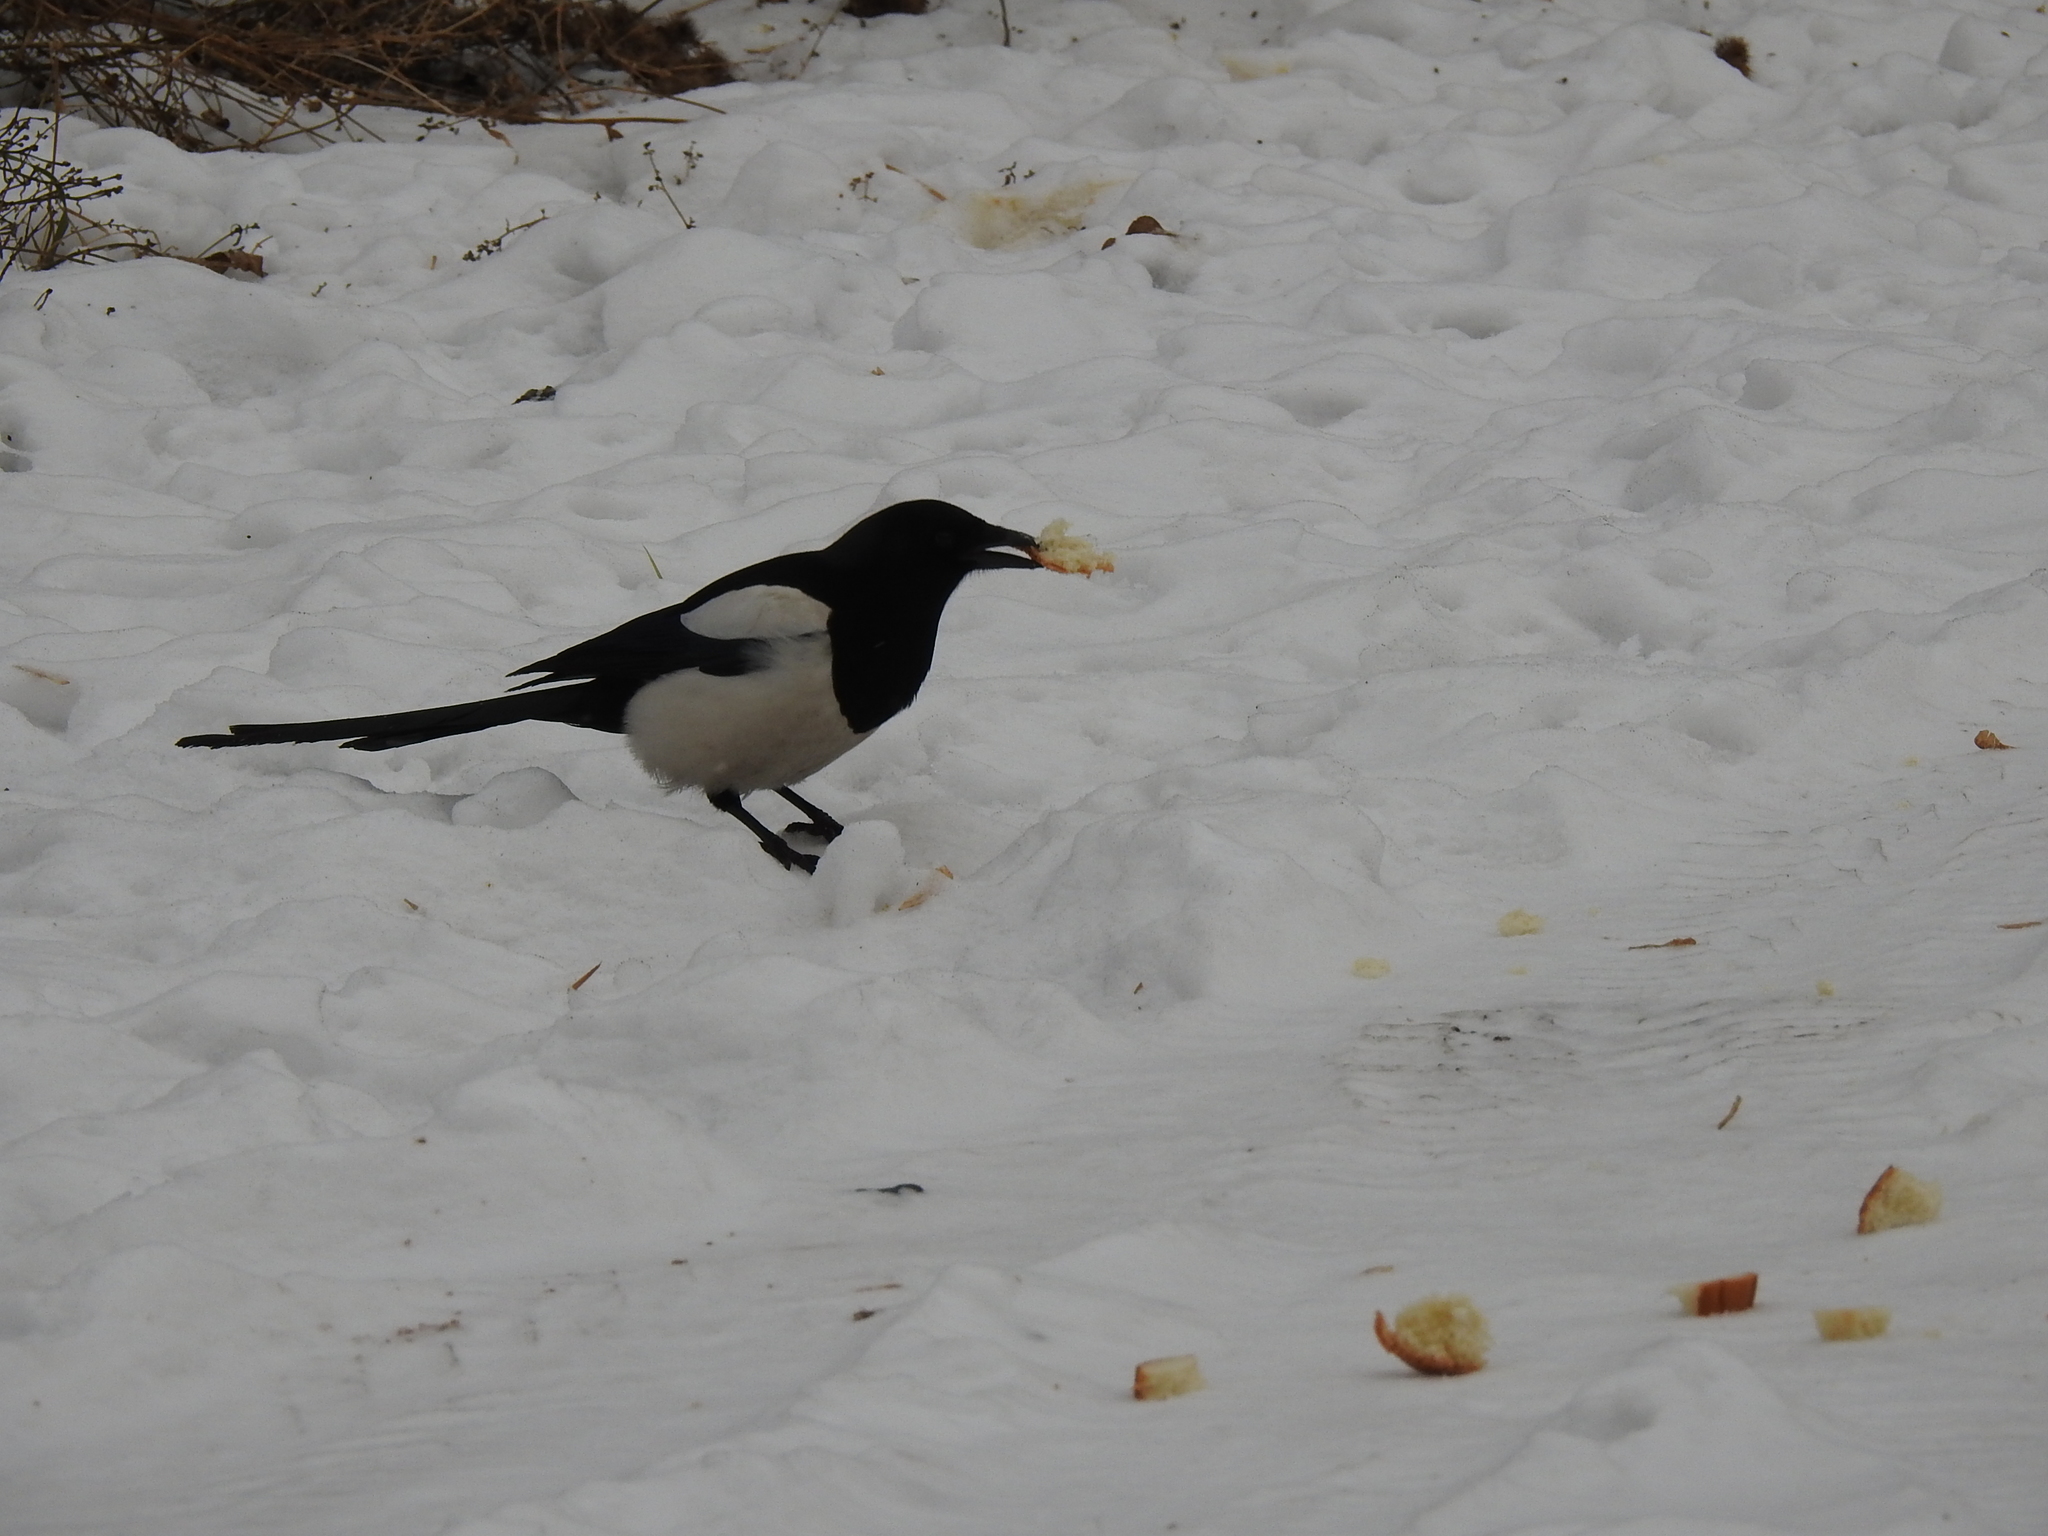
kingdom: Animalia
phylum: Chordata
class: Aves
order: Passeriformes
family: Corvidae
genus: Pica
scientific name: Pica pica
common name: Eurasian magpie
